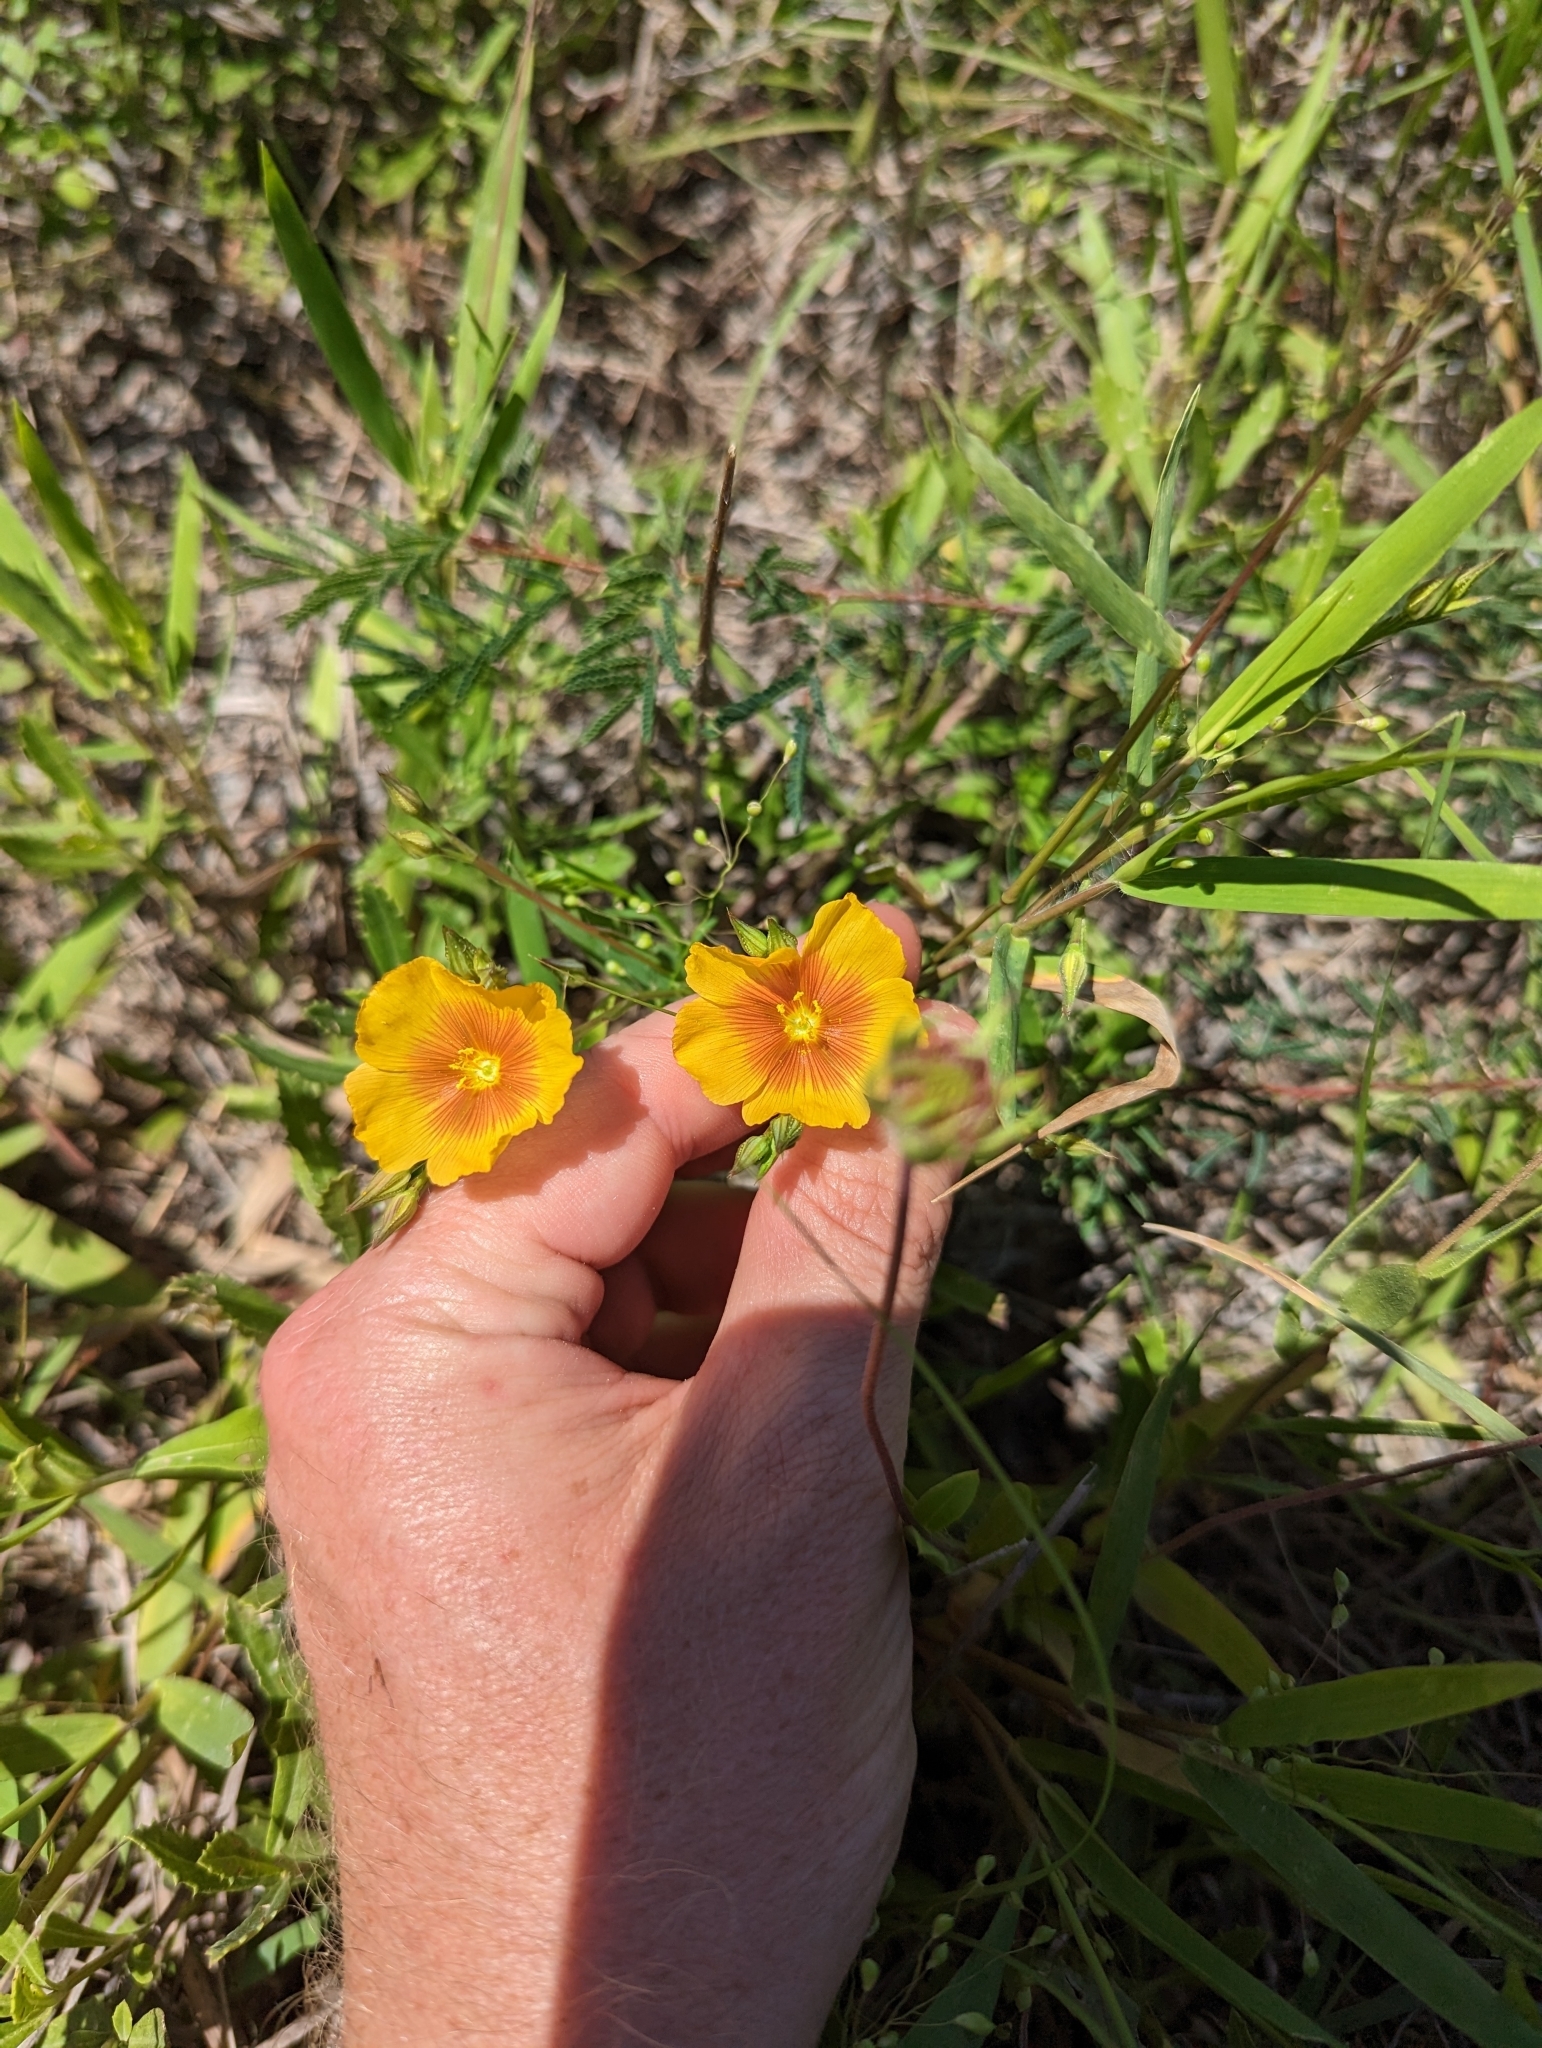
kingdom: Plantae
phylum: Tracheophyta
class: Magnoliopsida
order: Malpighiales
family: Linaceae
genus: Linum
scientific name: Linum berlandieri
